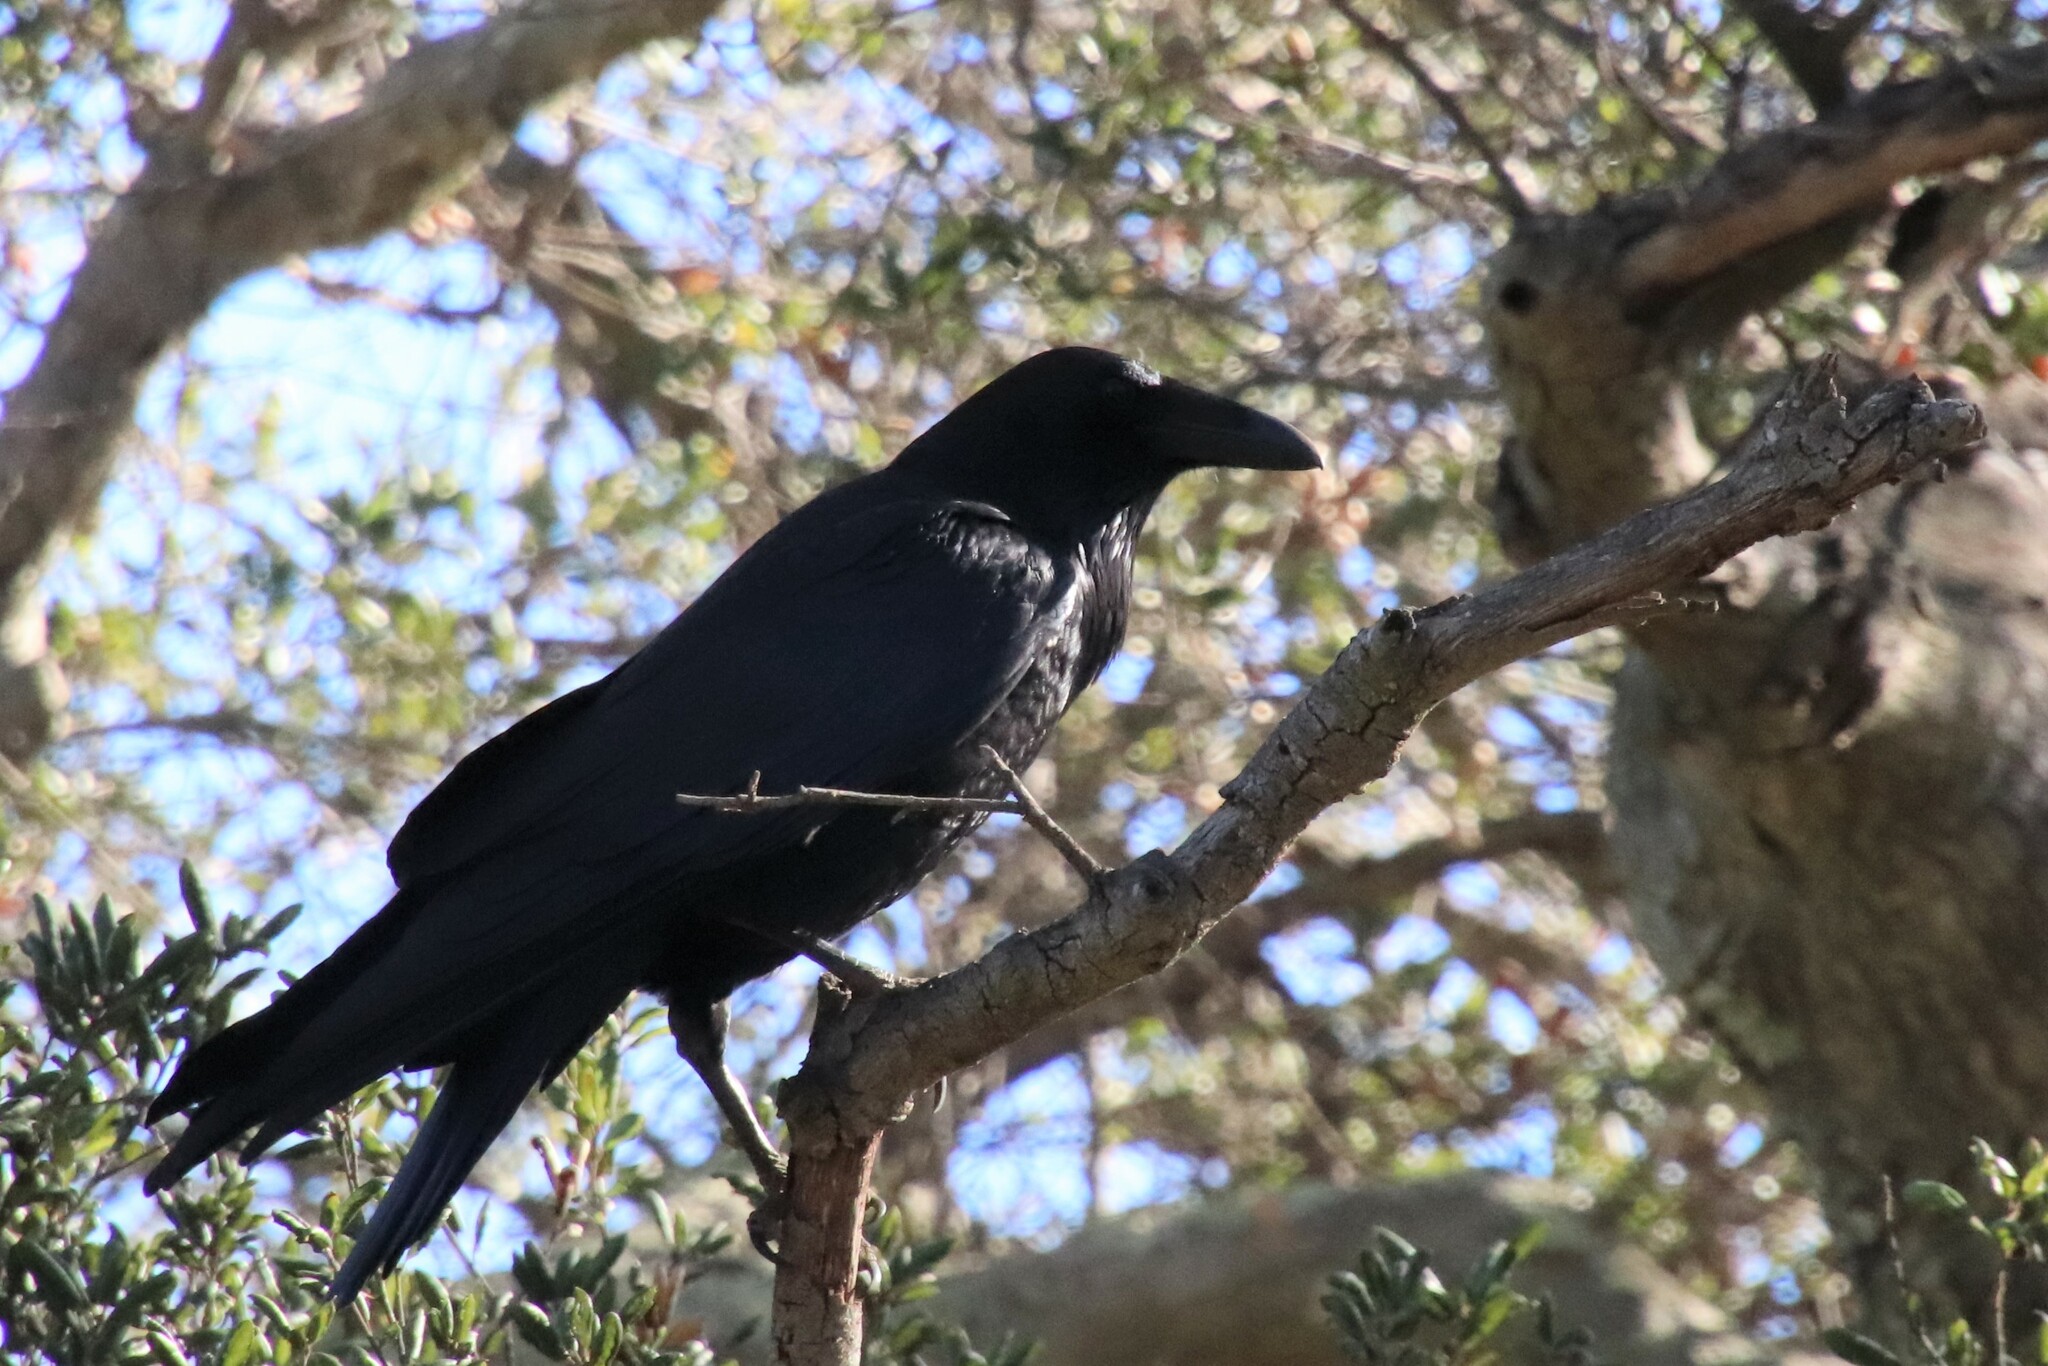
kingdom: Animalia
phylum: Chordata
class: Aves
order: Passeriformes
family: Corvidae
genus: Corvus
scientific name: Corvus corax
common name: Common raven
